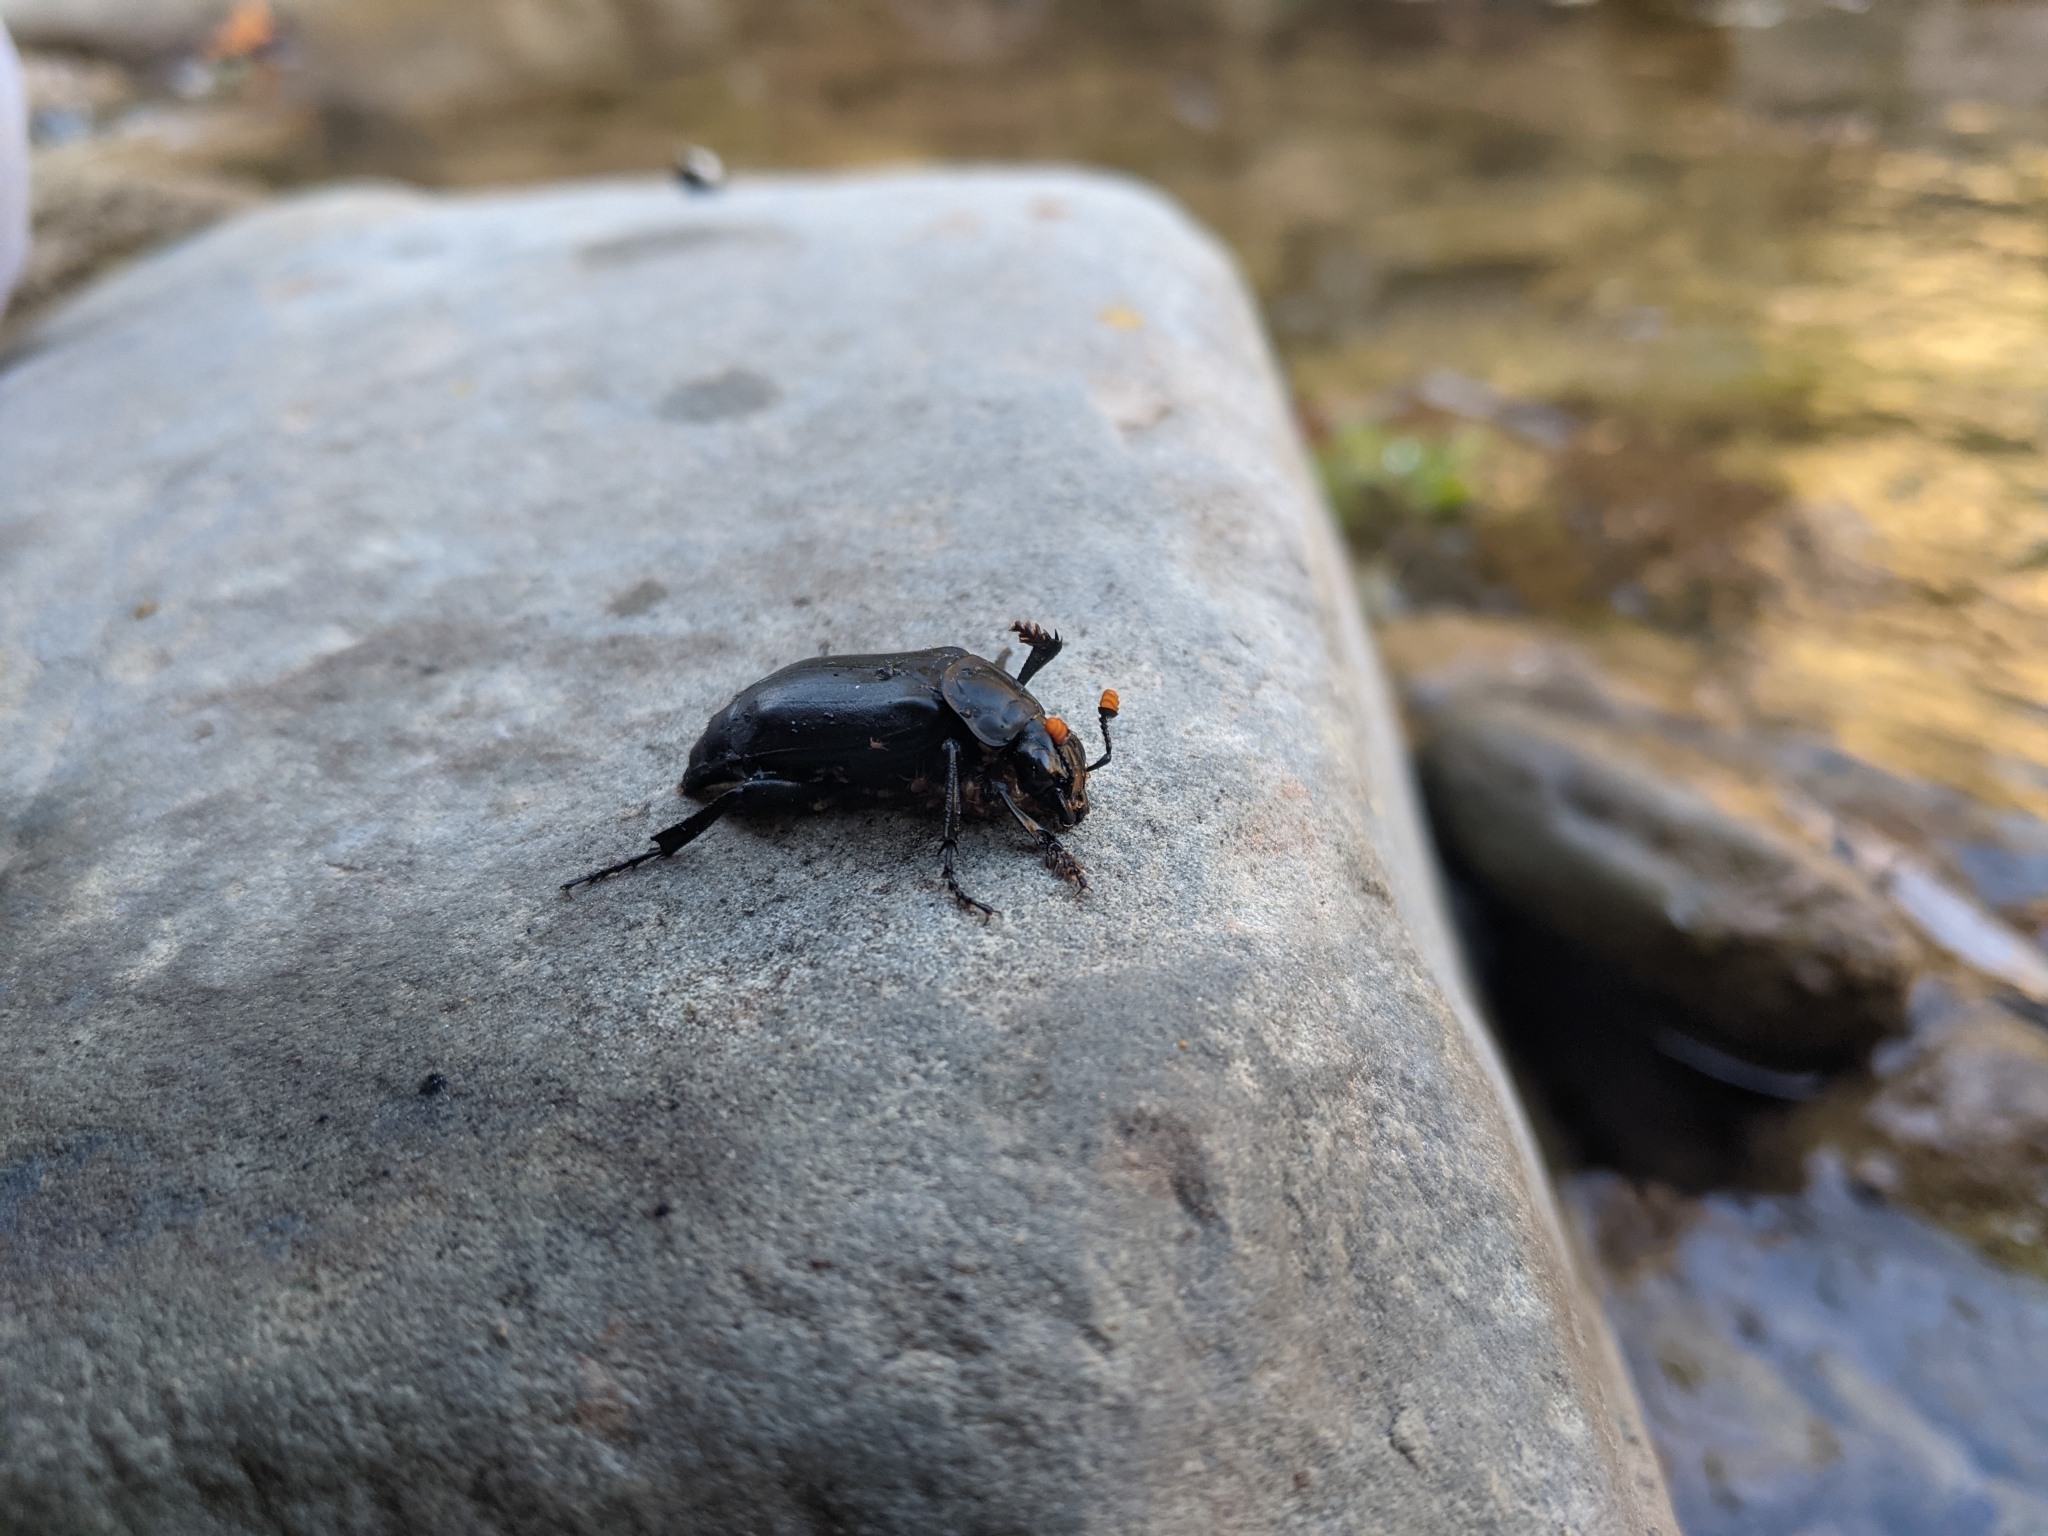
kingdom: Animalia
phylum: Arthropoda
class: Insecta
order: Coleoptera
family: Staphylinidae
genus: Nicrophorus
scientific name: Nicrophorus nigrita
